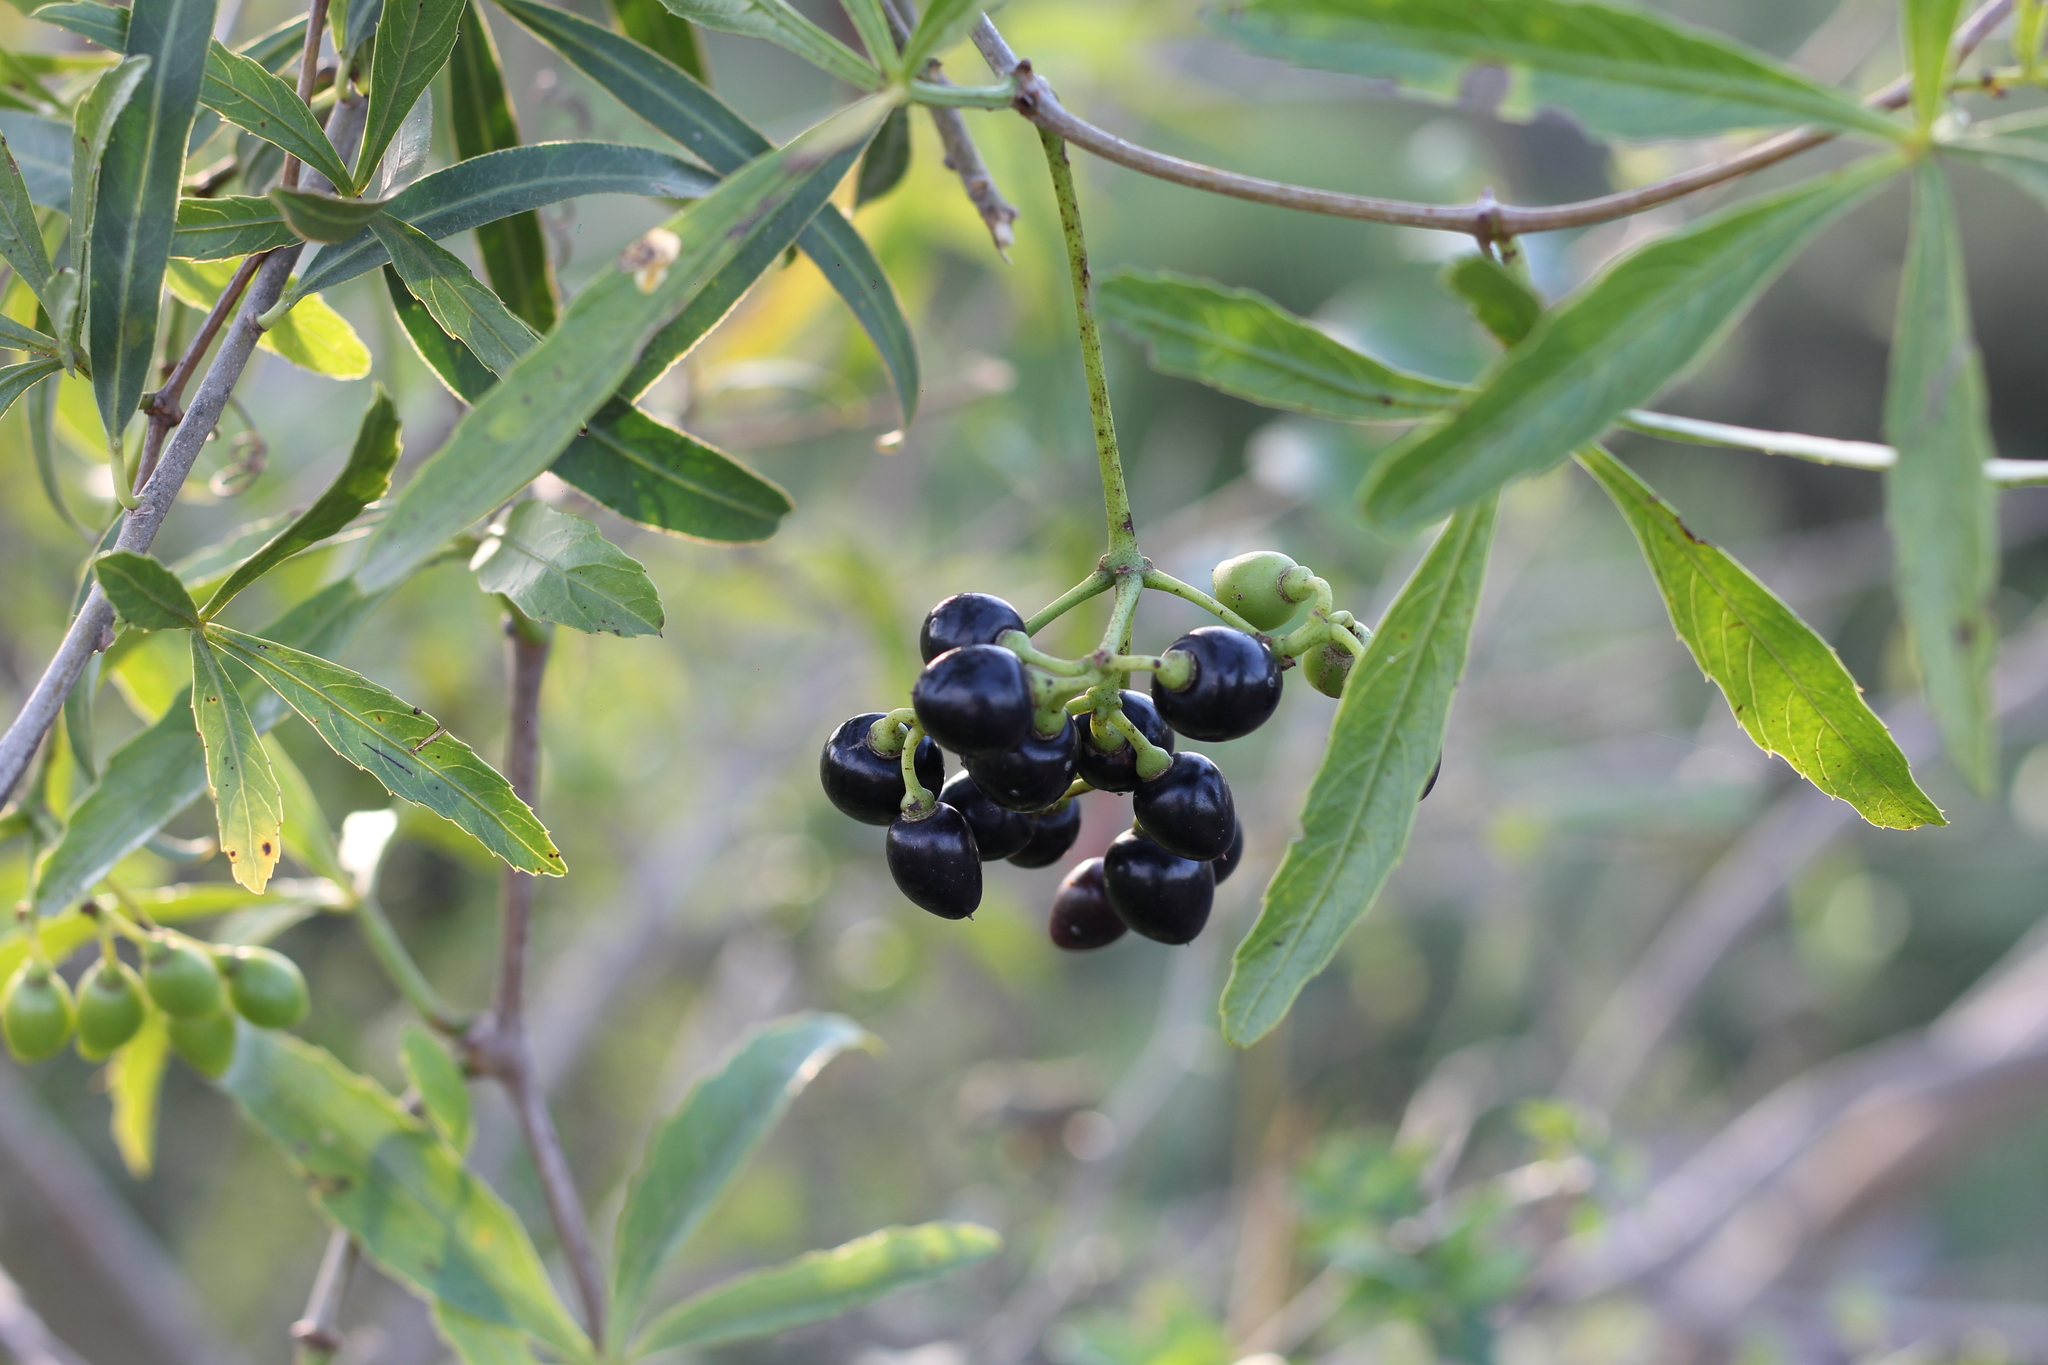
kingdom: Plantae
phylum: Tracheophyta
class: Magnoliopsida
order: Vitales
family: Vitaceae
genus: Cissus
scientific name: Cissus palmata
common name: Grape
